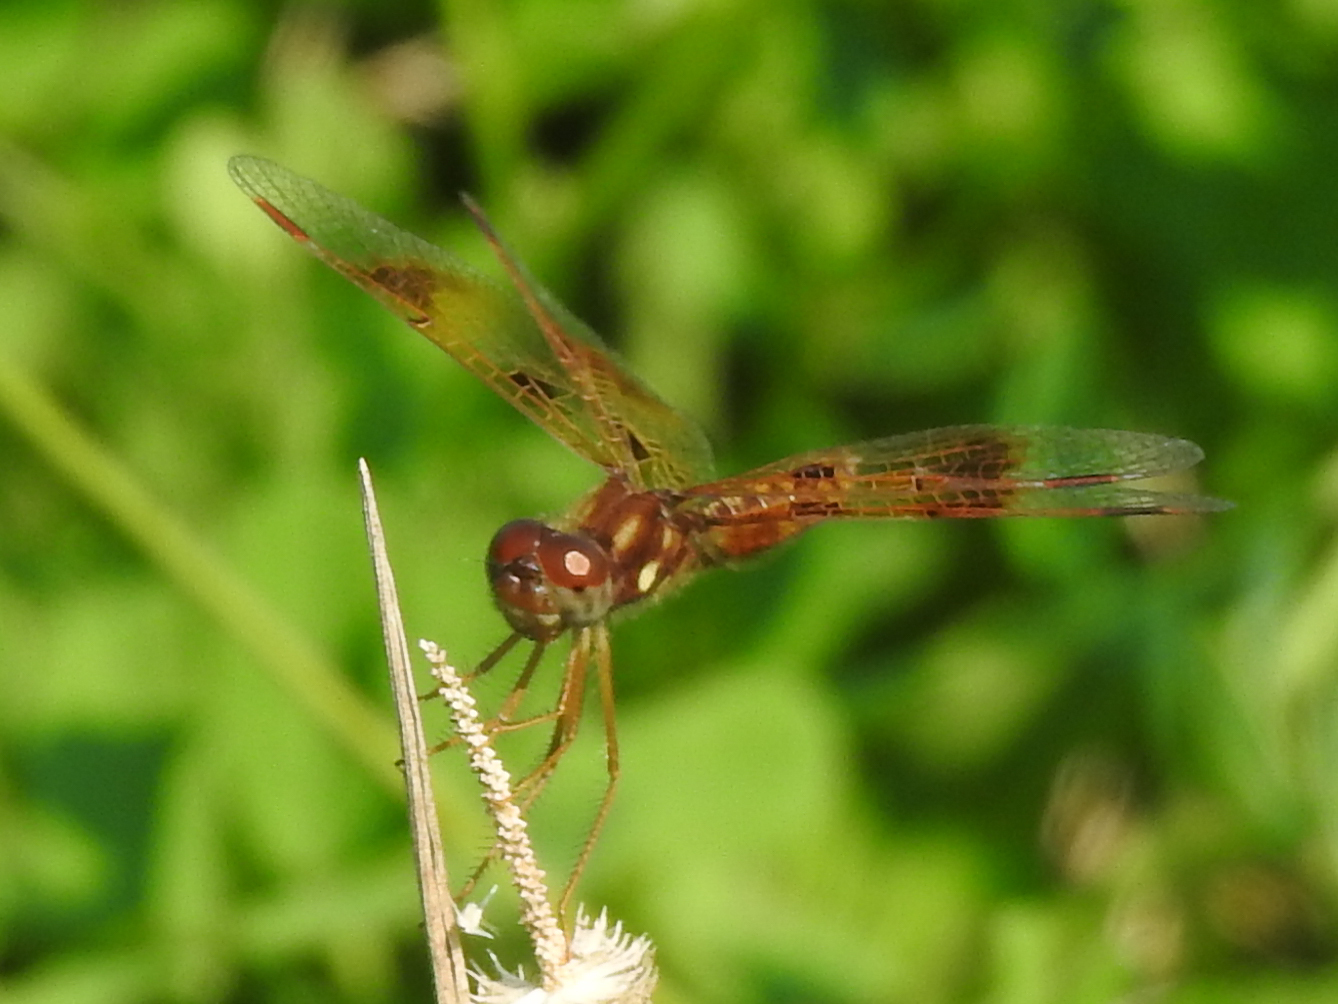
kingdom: Animalia
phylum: Arthropoda
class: Insecta
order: Odonata
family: Libellulidae
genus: Perithemis
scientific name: Perithemis tenera
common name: Eastern amberwing
